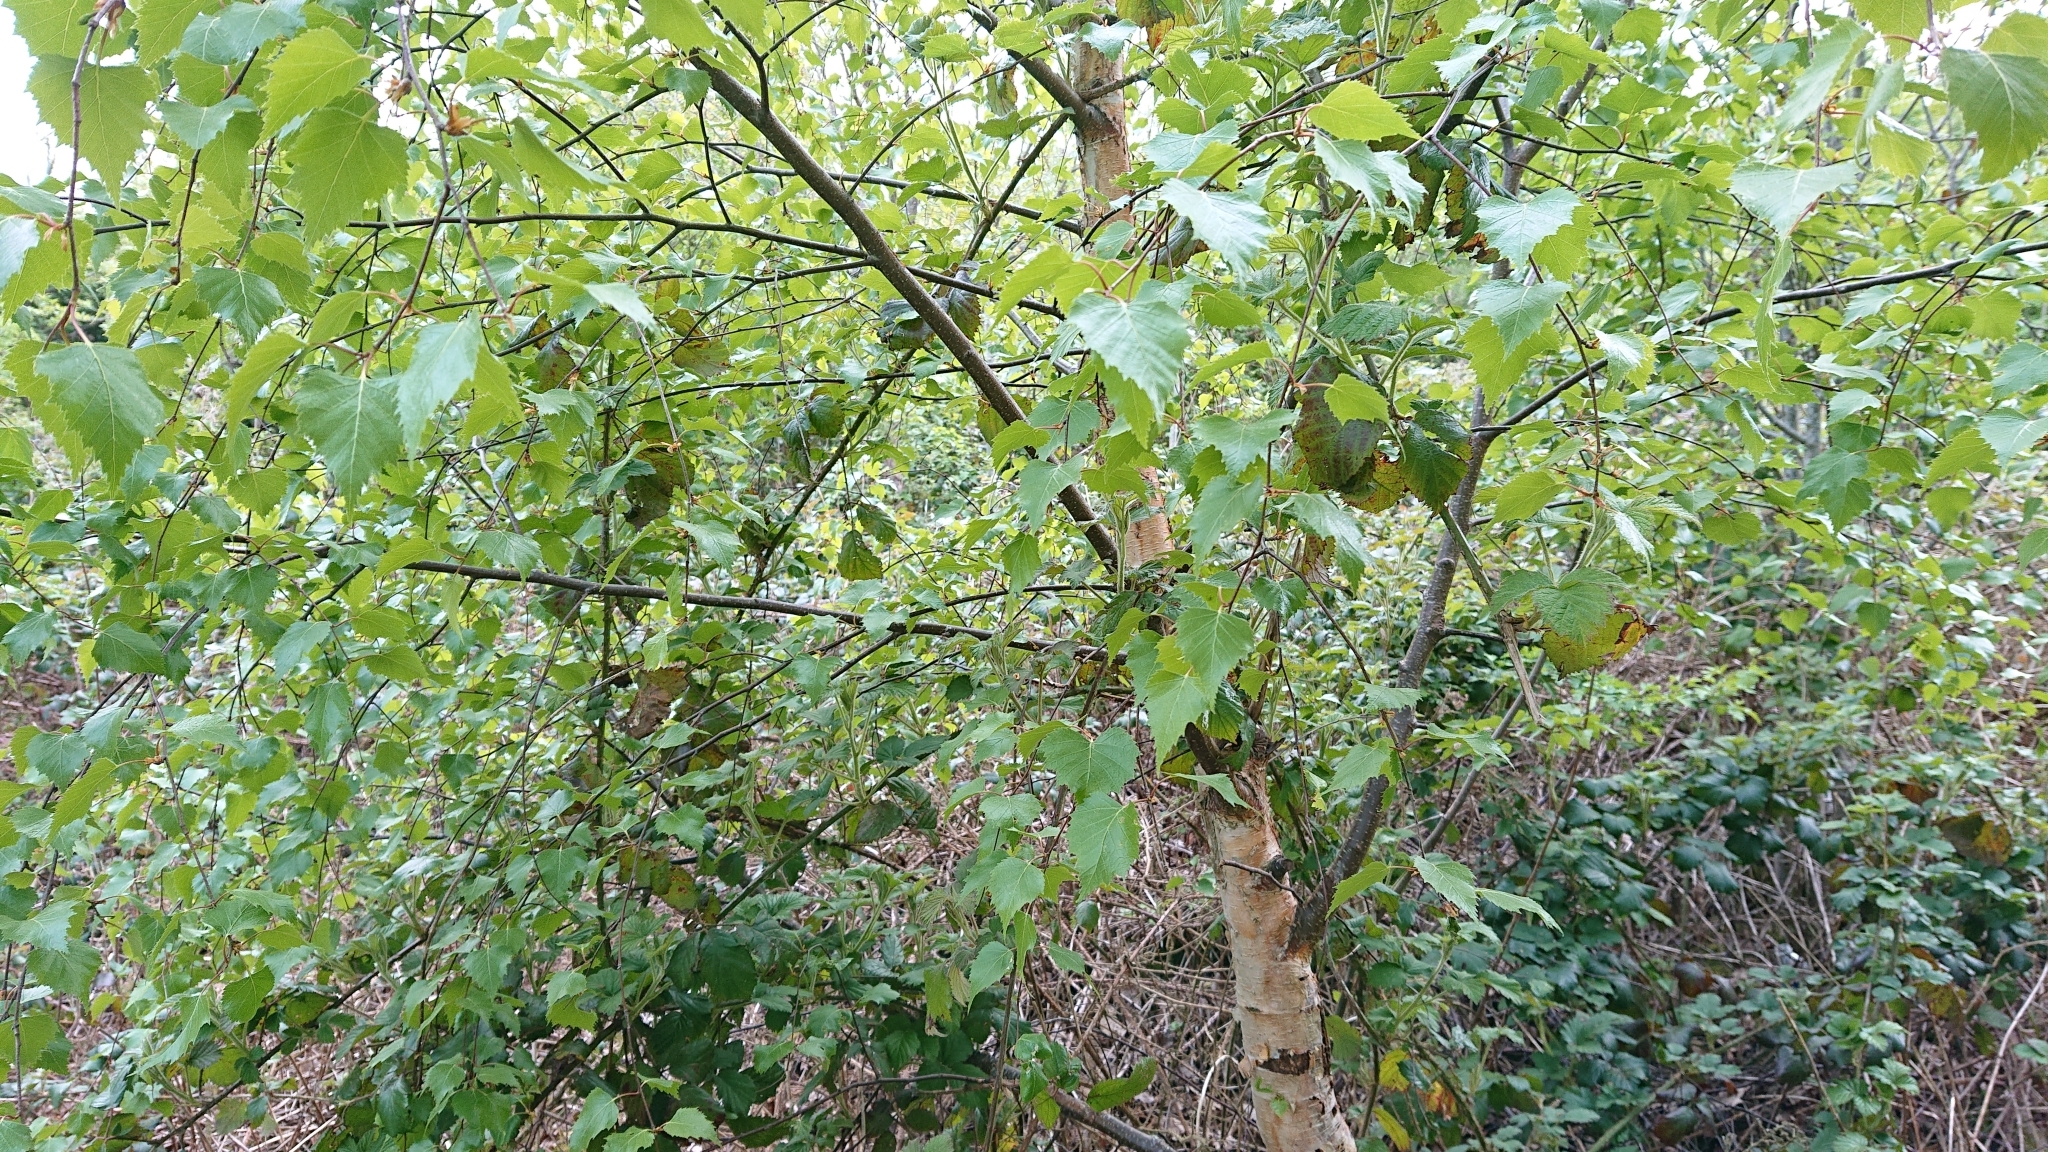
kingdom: Plantae
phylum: Tracheophyta
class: Magnoliopsida
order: Fagales
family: Betulaceae
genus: Betula
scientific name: Betula pendula
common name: Silver birch
